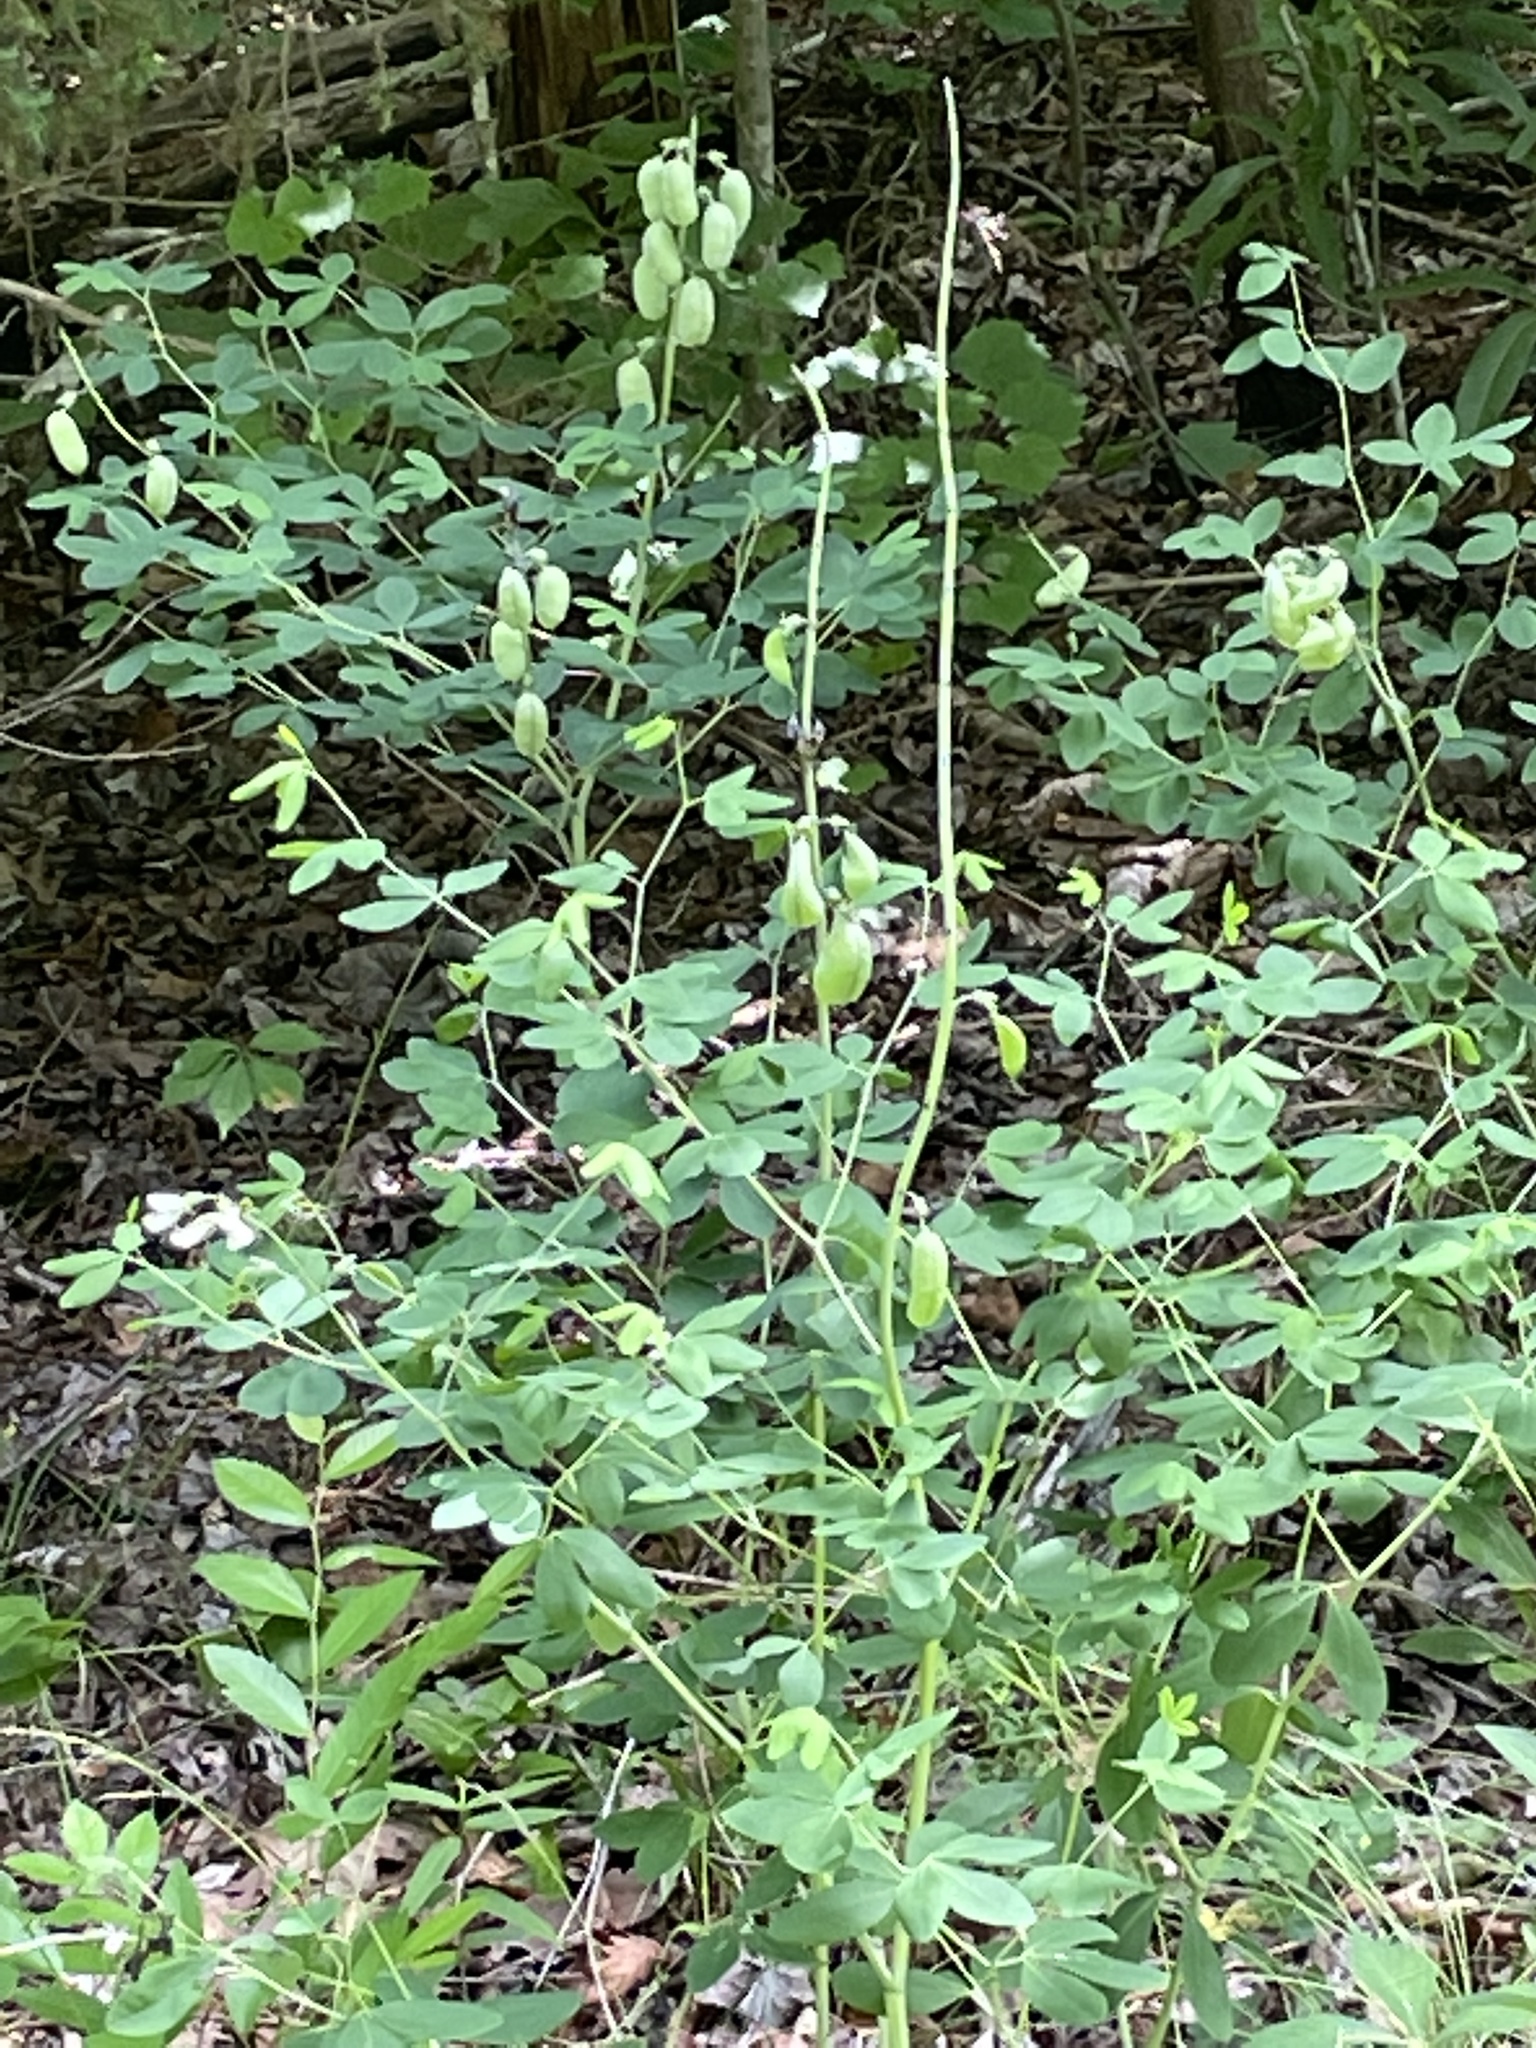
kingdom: Plantae
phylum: Tracheophyta
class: Magnoliopsida
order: Fabales
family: Fabaceae
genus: Baptisia
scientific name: Baptisia alba
